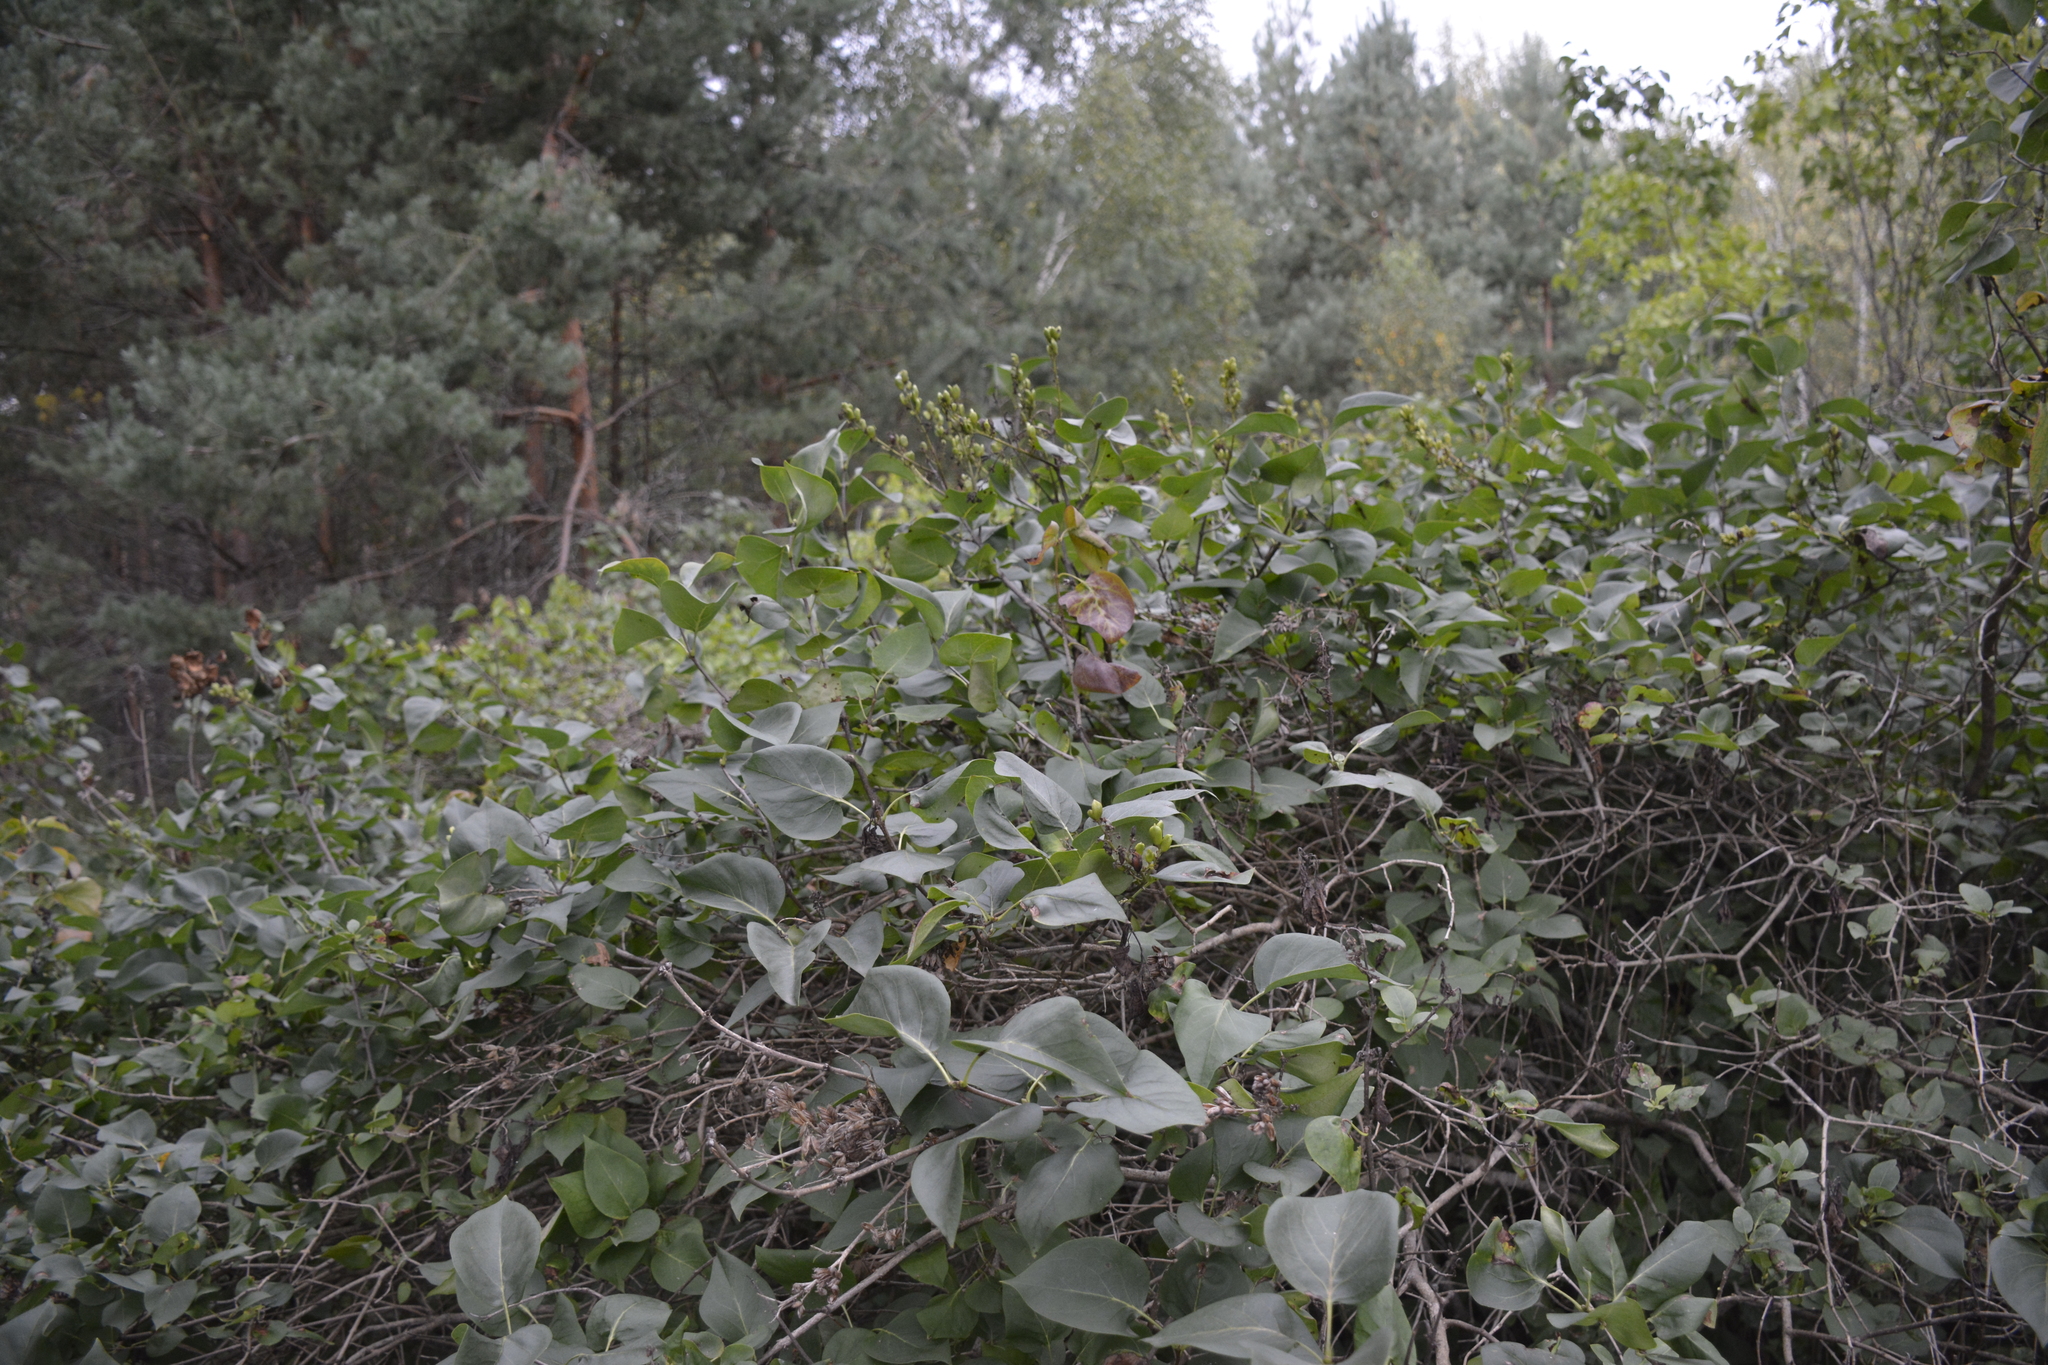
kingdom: Plantae
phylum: Tracheophyta
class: Magnoliopsida
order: Lamiales
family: Oleaceae
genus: Syringa
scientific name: Syringa vulgaris
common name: Common lilac
